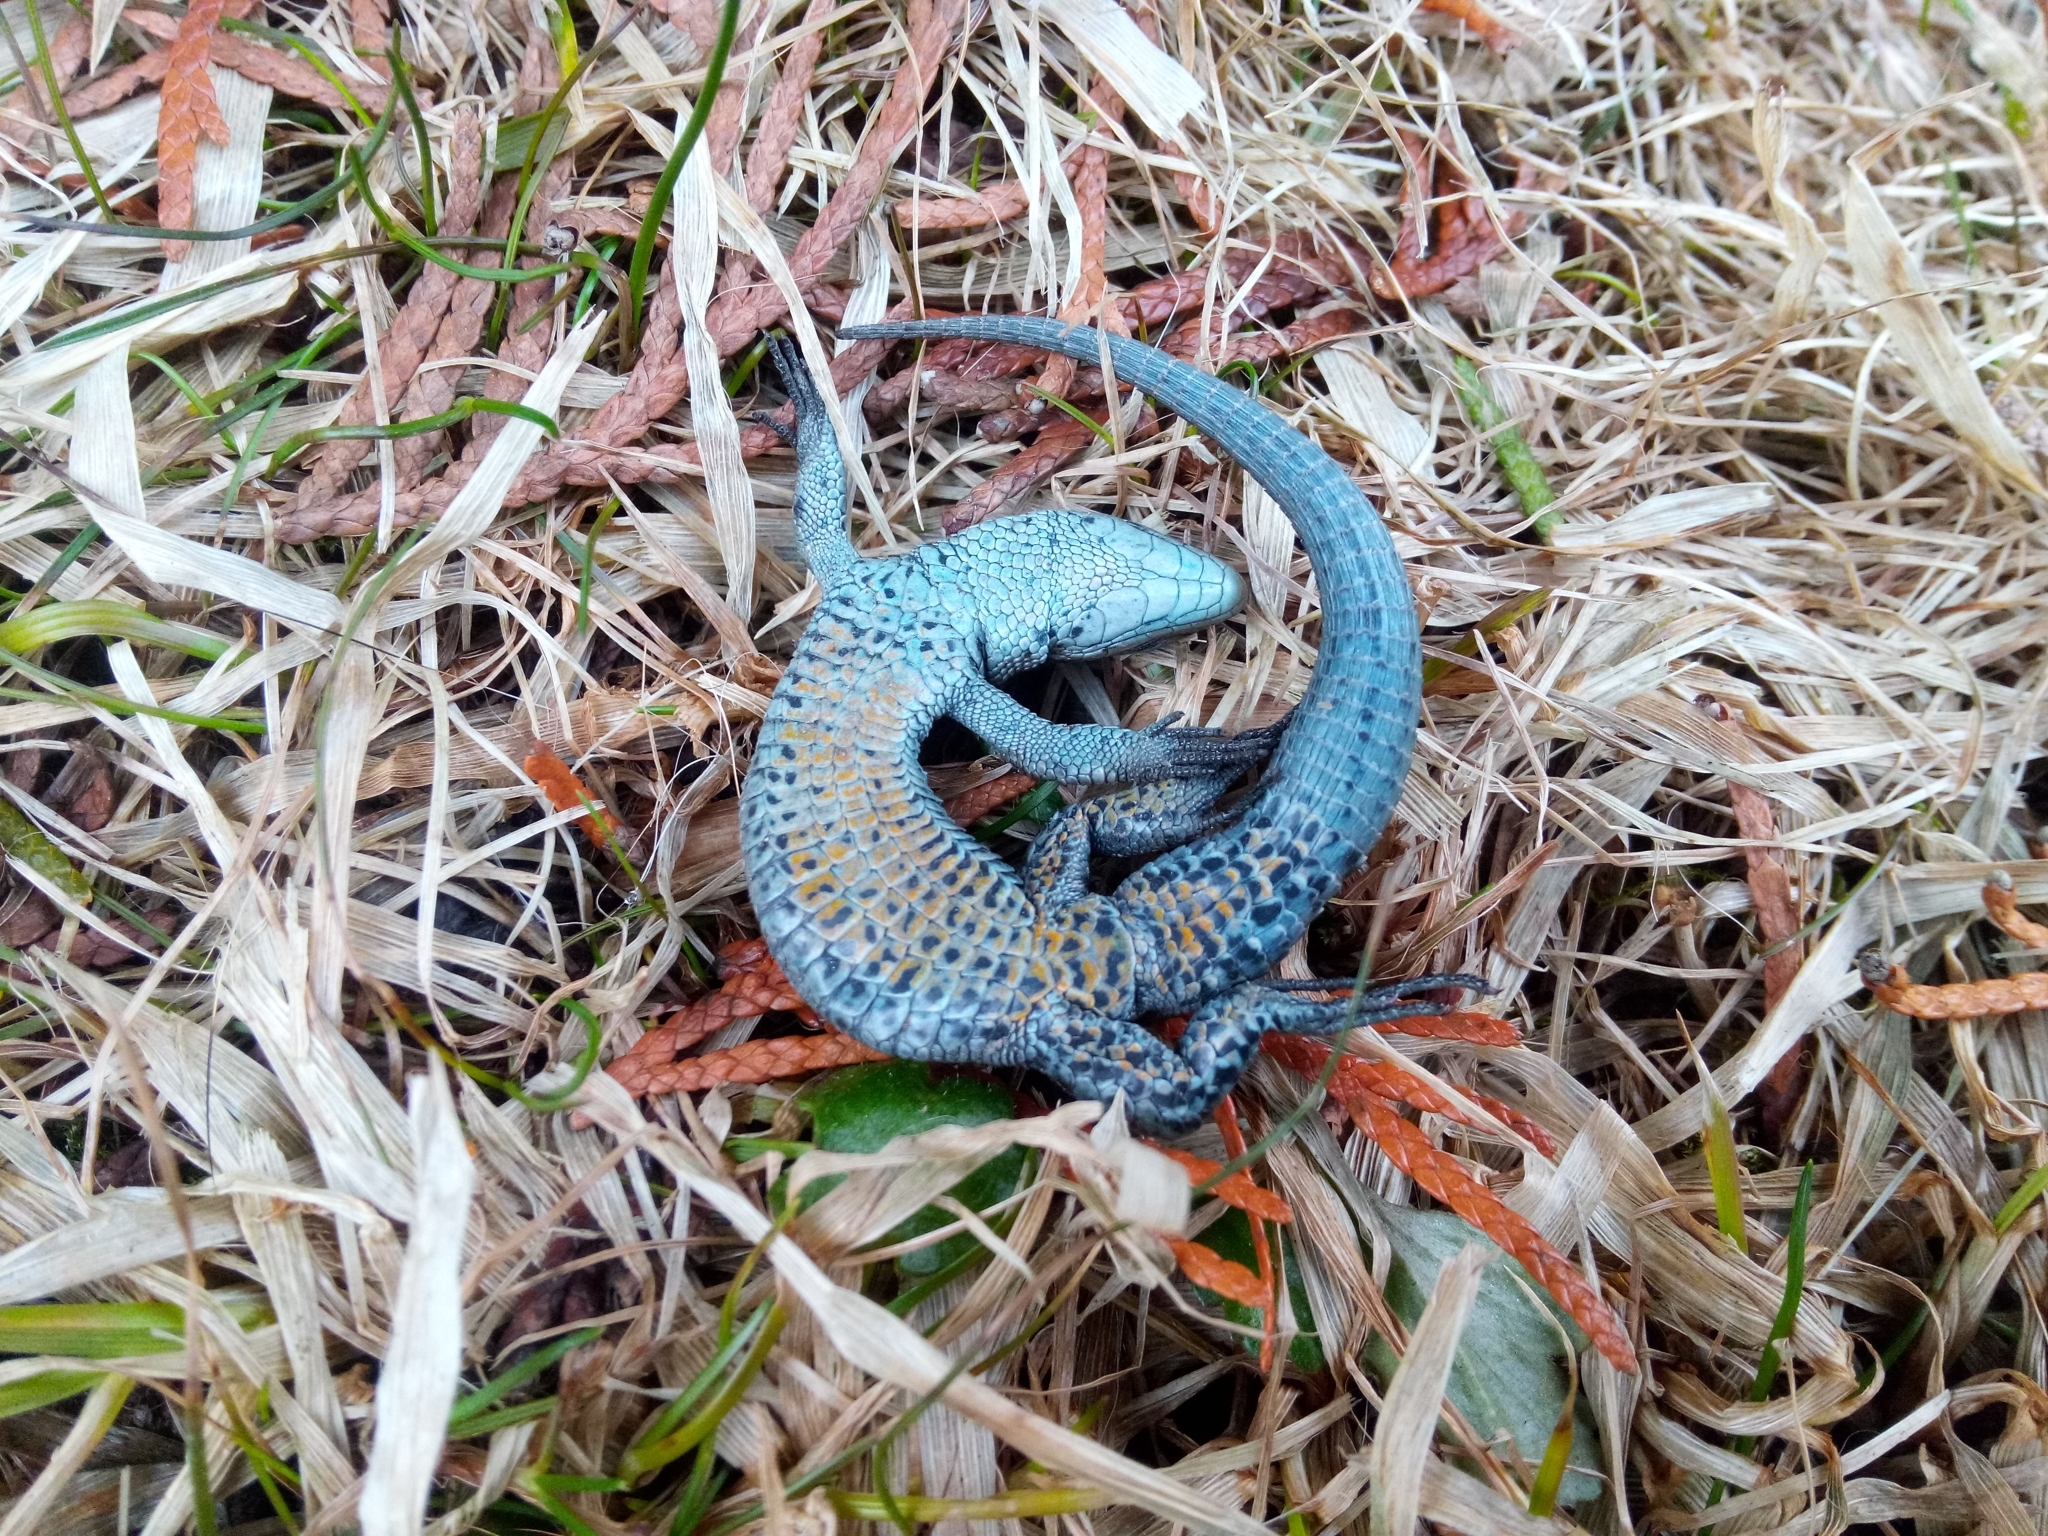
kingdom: Animalia
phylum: Chordata
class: Squamata
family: Lacertidae
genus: Zootoca
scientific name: Zootoca vivipara
